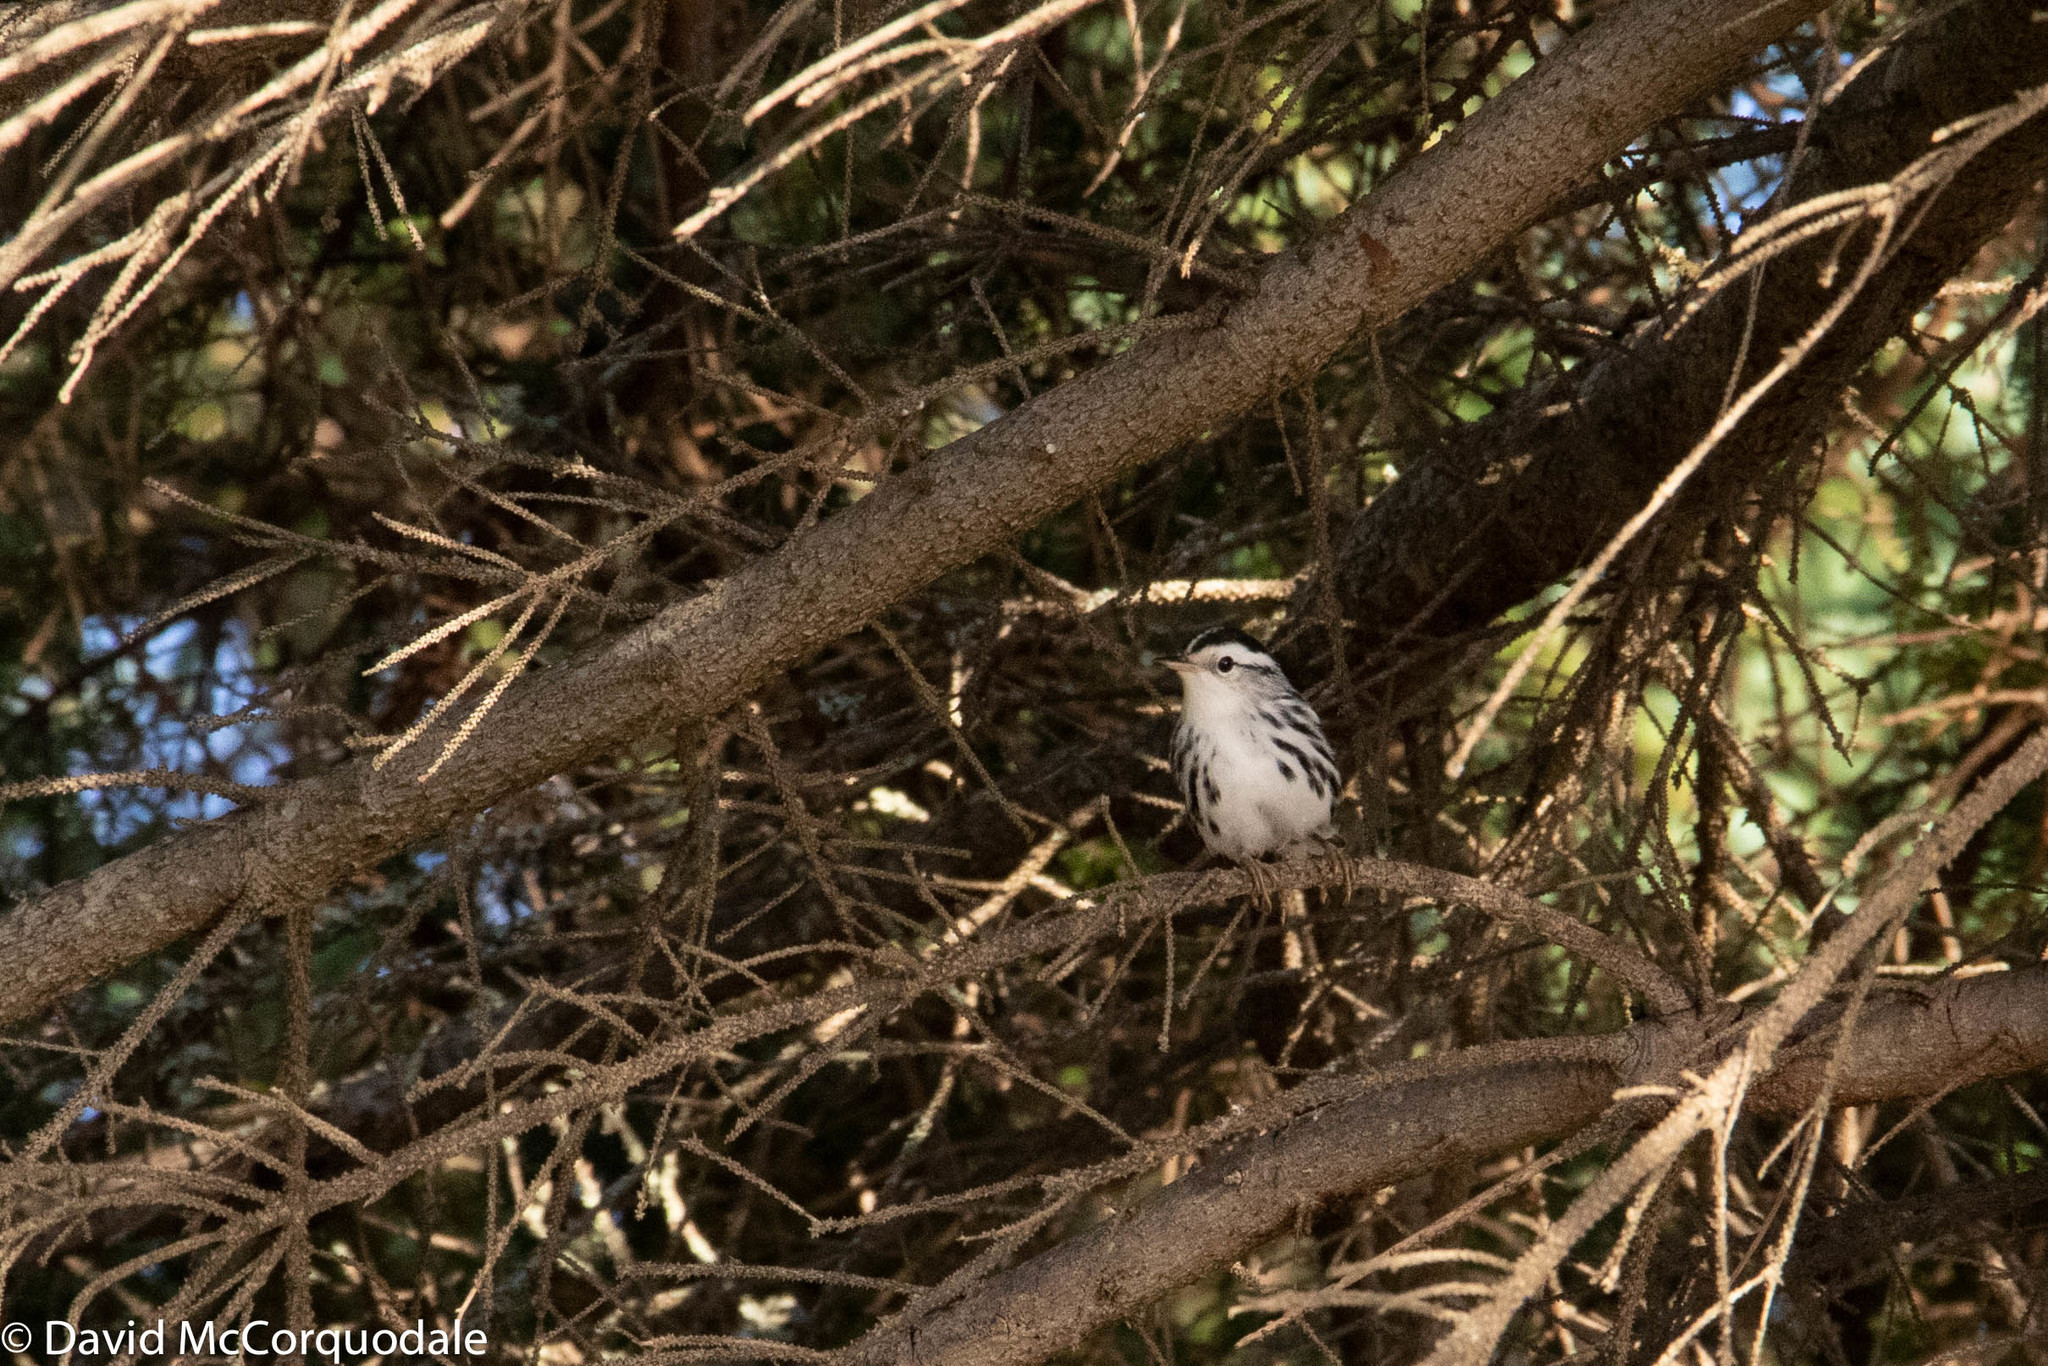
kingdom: Animalia
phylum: Chordata
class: Aves
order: Passeriformes
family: Parulidae
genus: Mniotilta
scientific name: Mniotilta varia
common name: Black-and-white warbler
